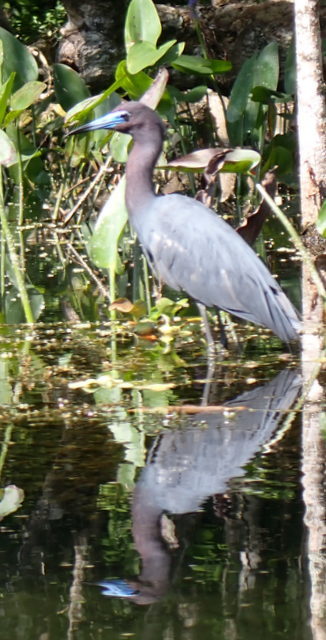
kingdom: Animalia
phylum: Chordata
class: Aves
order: Pelecaniformes
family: Ardeidae
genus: Egretta
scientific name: Egretta caerulea
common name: Little blue heron
